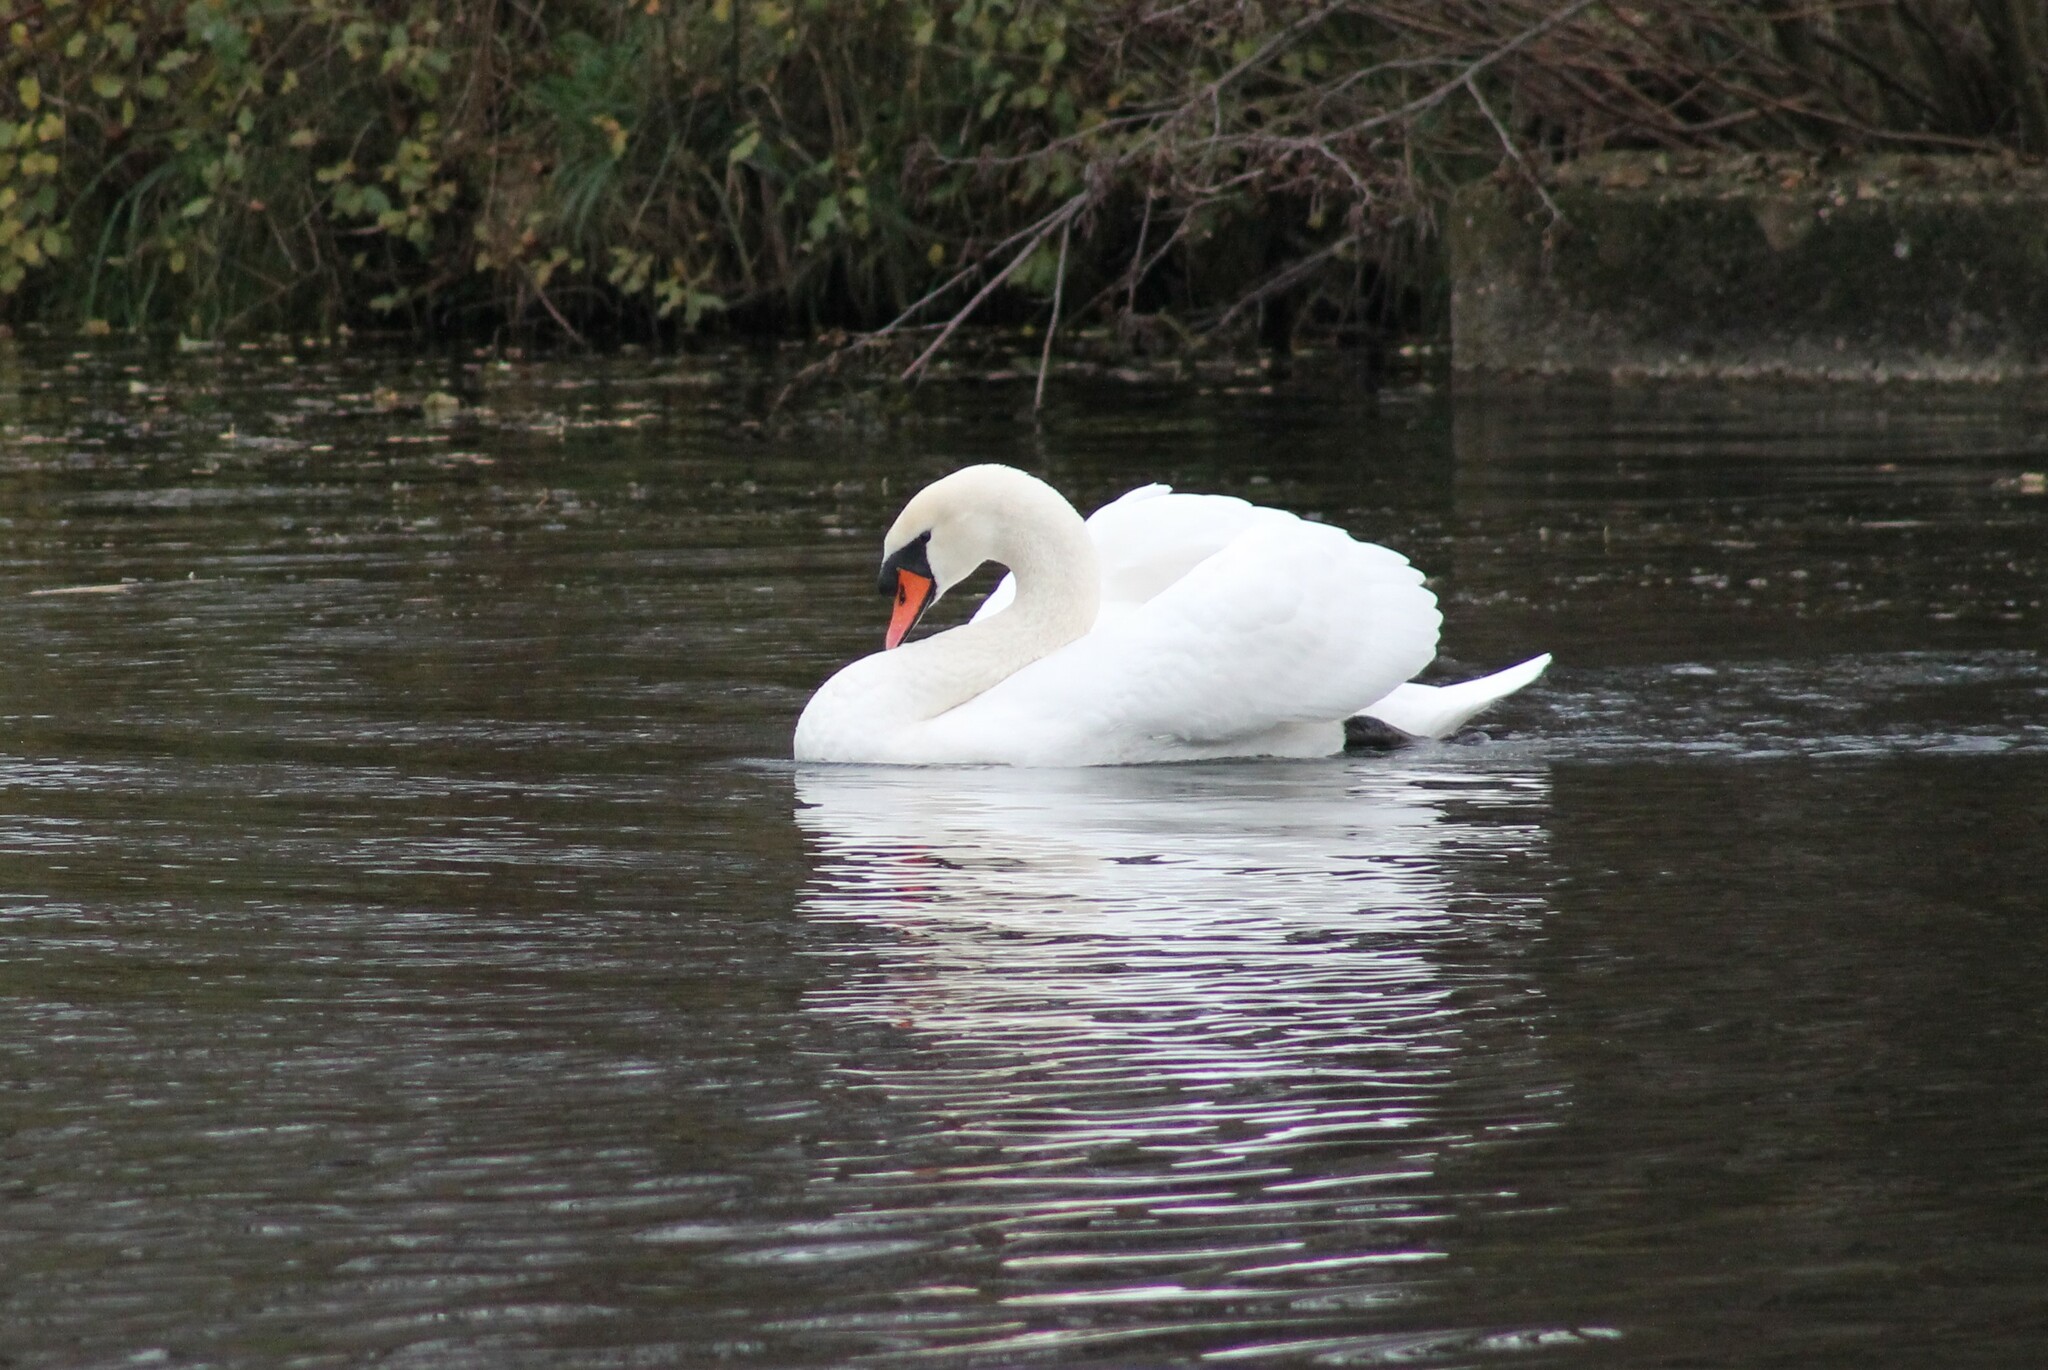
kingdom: Animalia
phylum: Chordata
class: Aves
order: Anseriformes
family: Anatidae
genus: Cygnus
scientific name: Cygnus olor
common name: Mute swan
